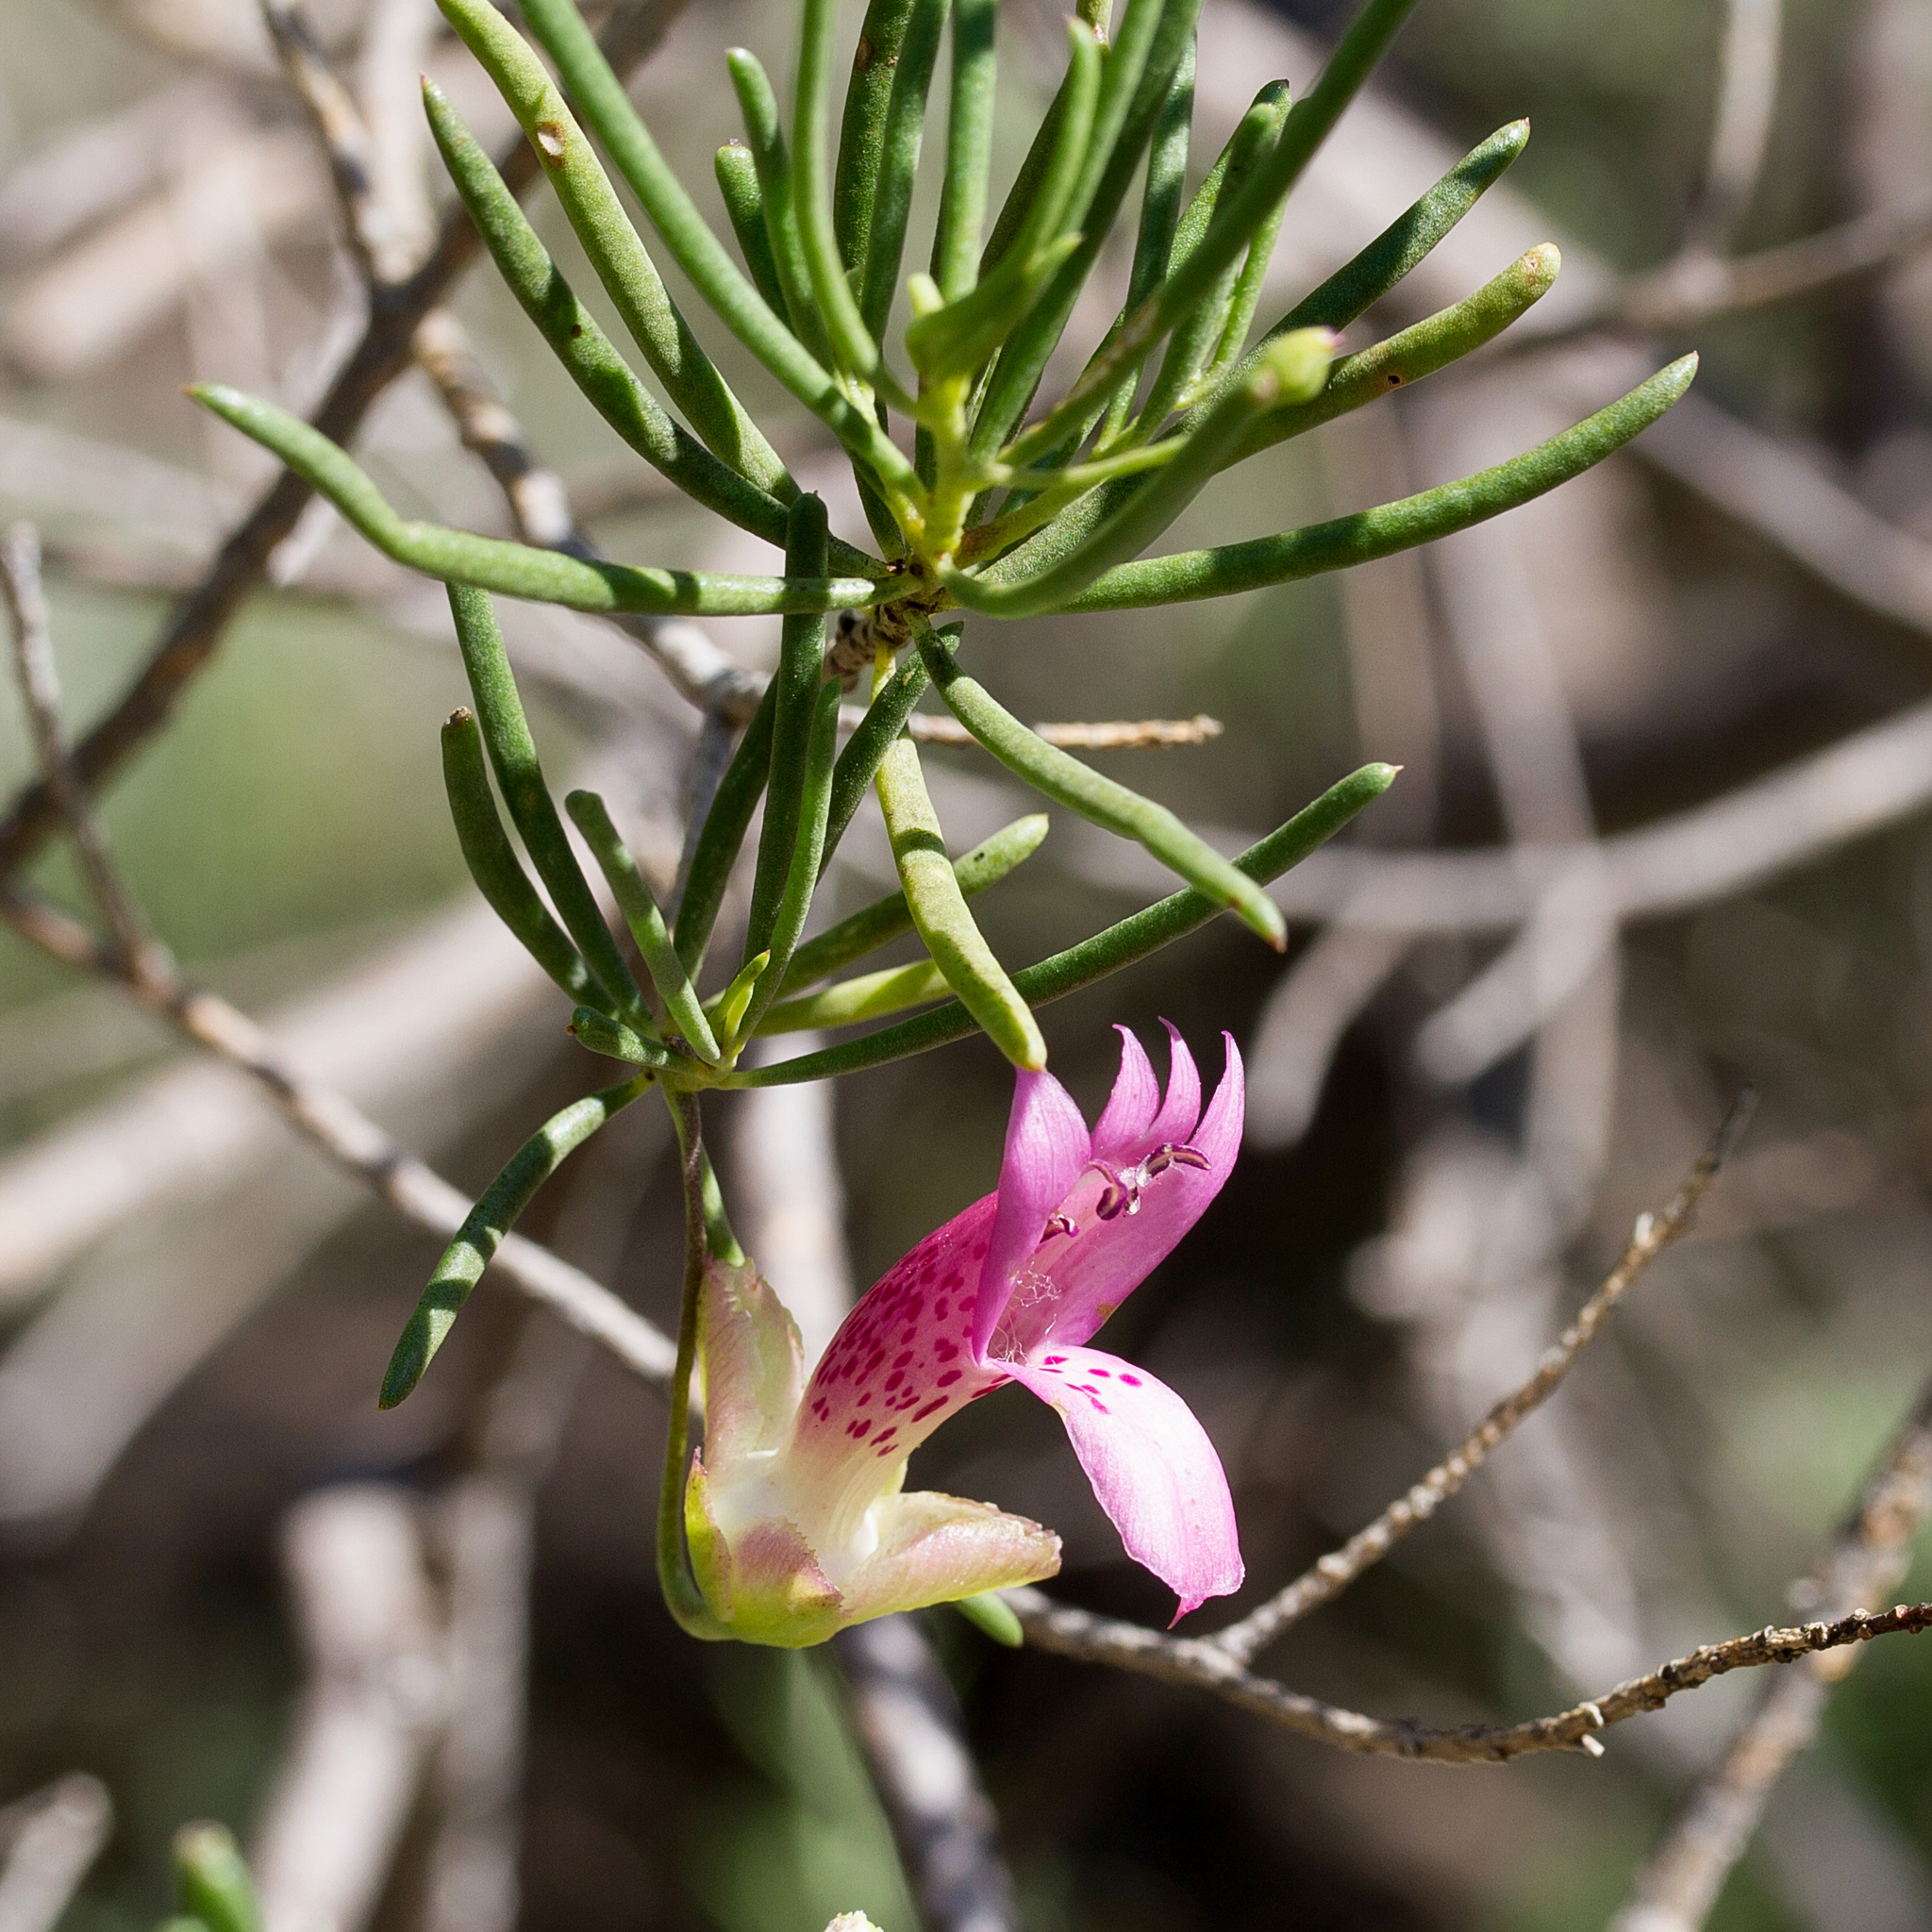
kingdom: Plantae
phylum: Tracheophyta
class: Magnoliopsida
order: Lamiales
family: Scrophulariaceae
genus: Eremophila
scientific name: Eremophila alternifolia
